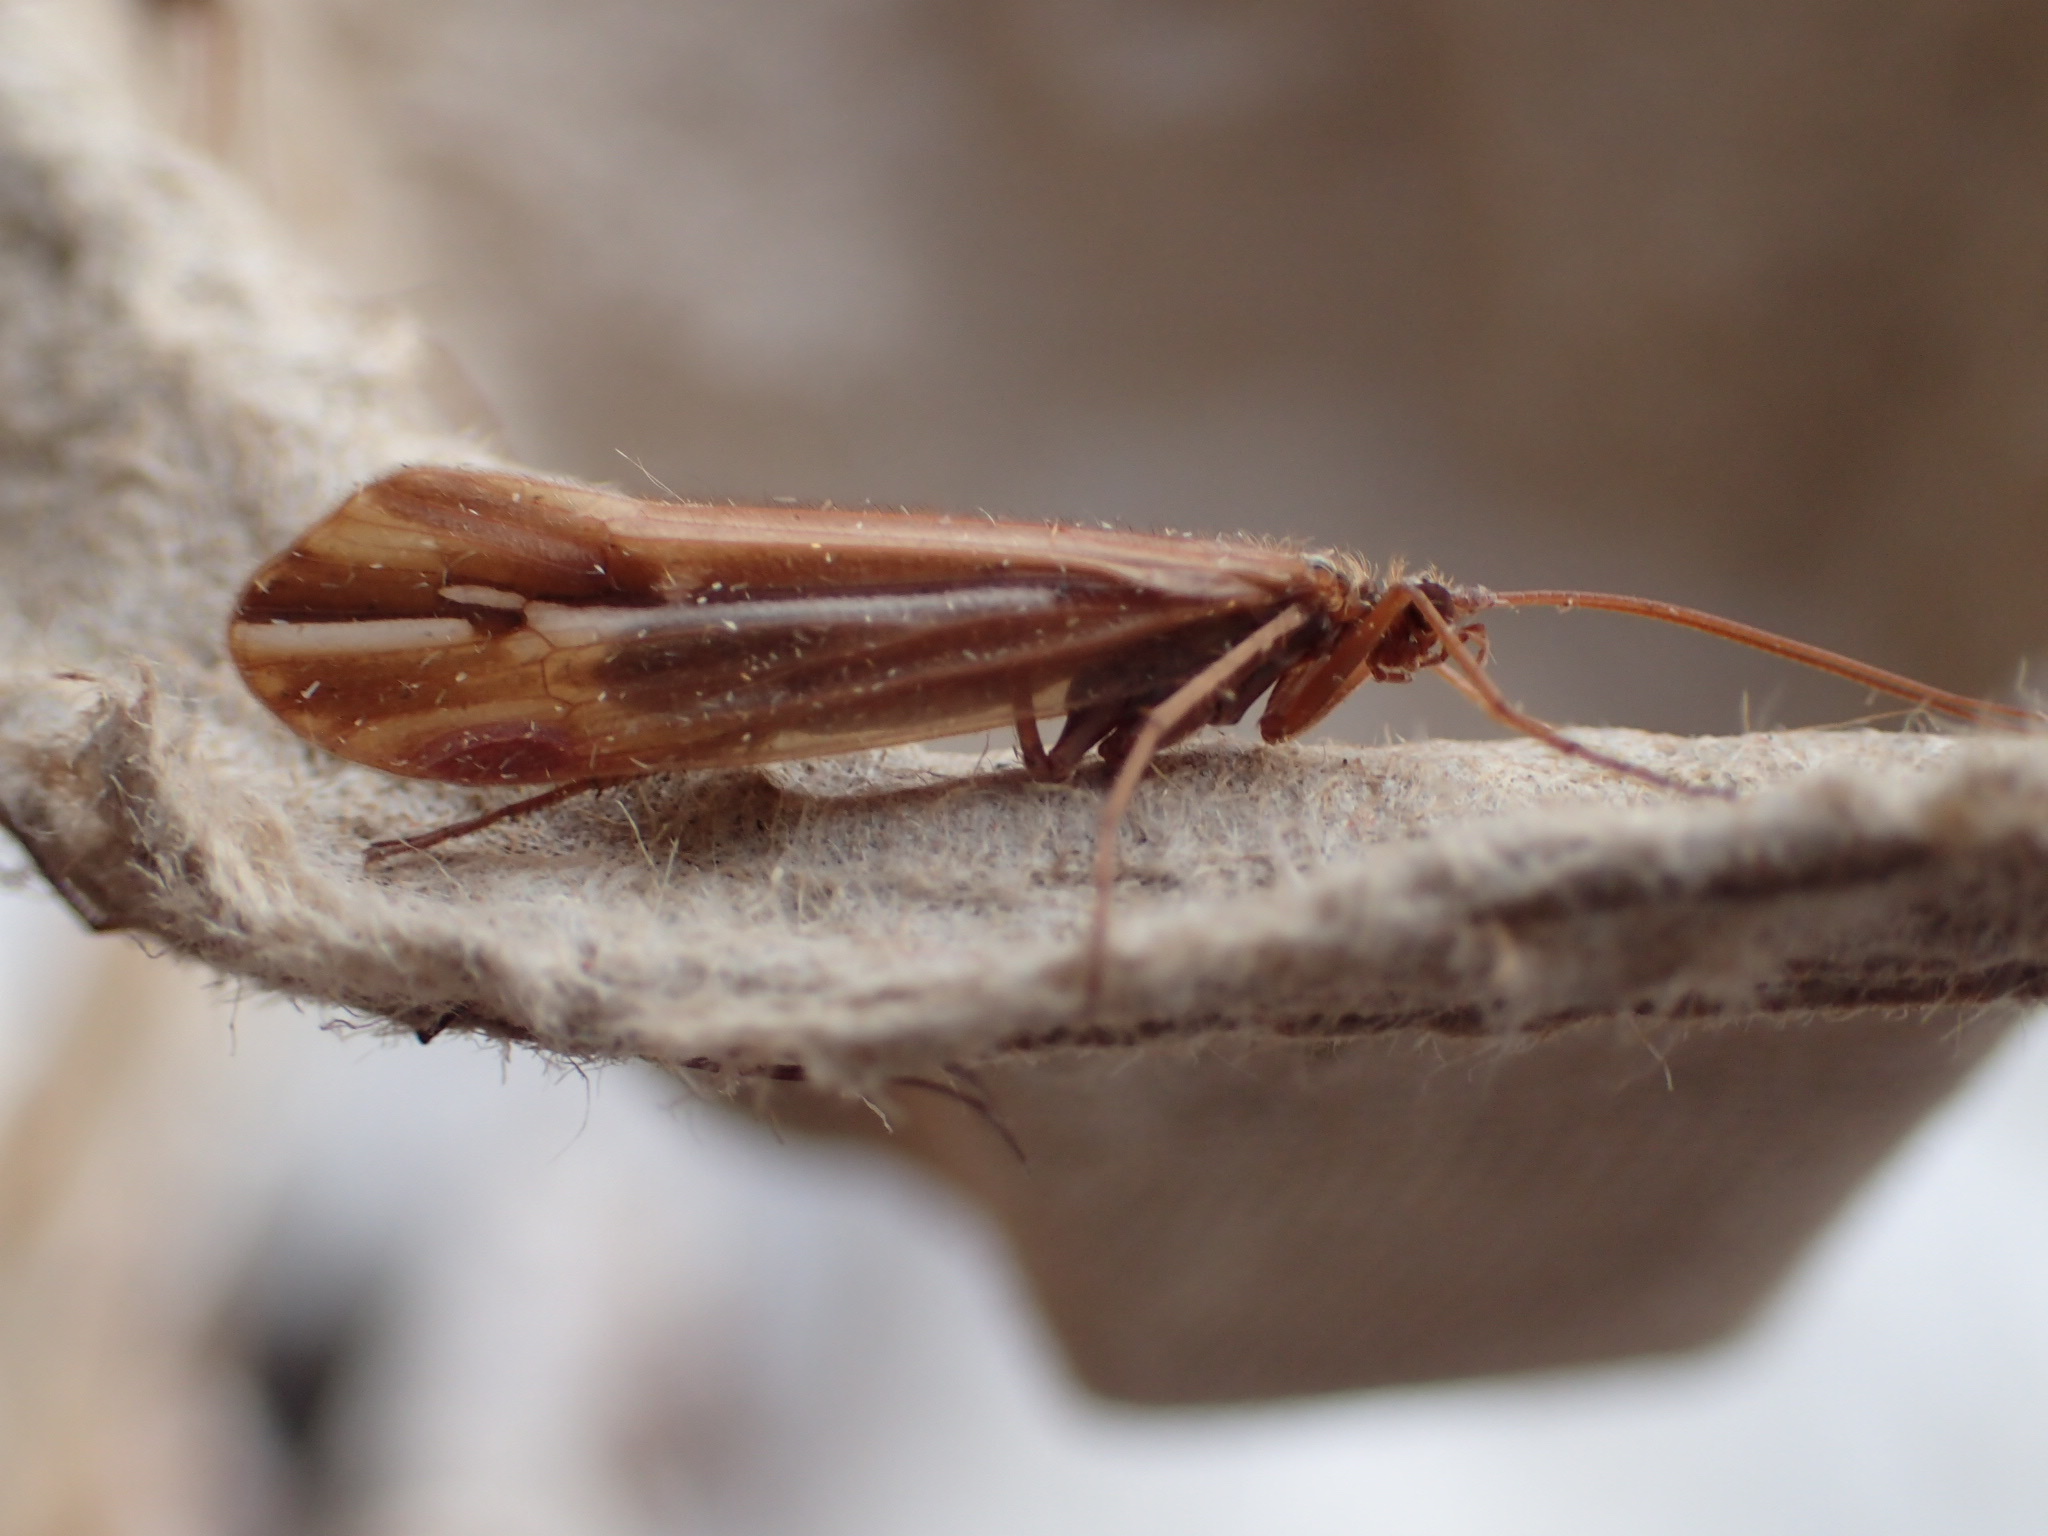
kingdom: Animalia
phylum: Arthropoda
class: Insecta
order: Trichoptera
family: Limnephilidae
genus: Psychoglypha
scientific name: Psychoglypha subborealis
